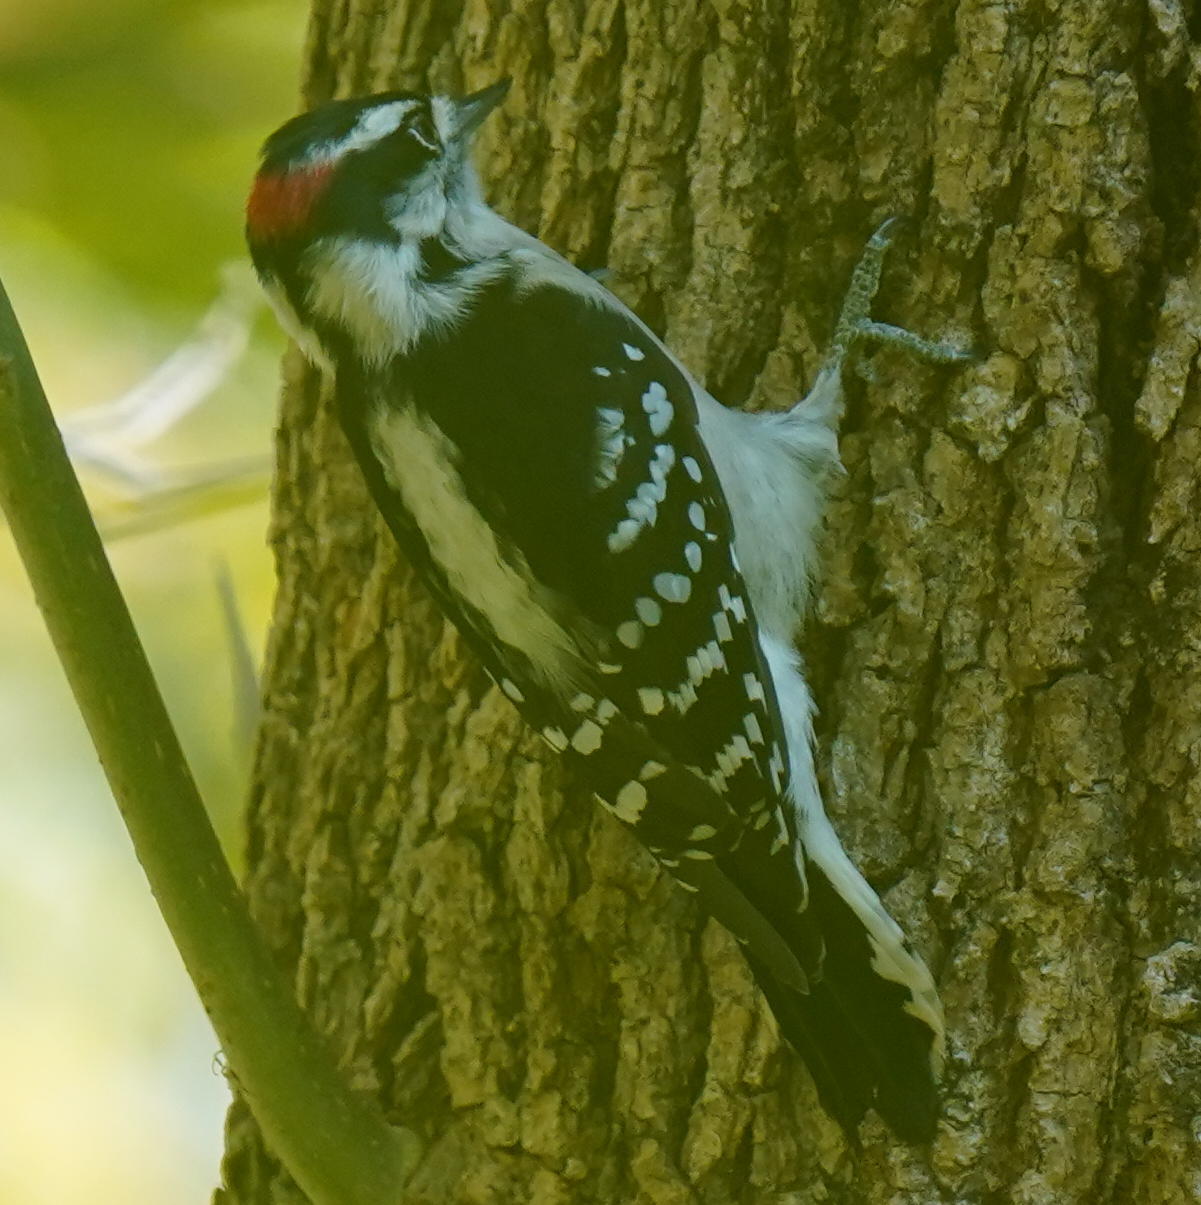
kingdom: Animalia
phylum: Chordata
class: Aves
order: Piciformes
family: Picidae
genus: Dryobates
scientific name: Dryobates pubescens
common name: Downy woodpecker
